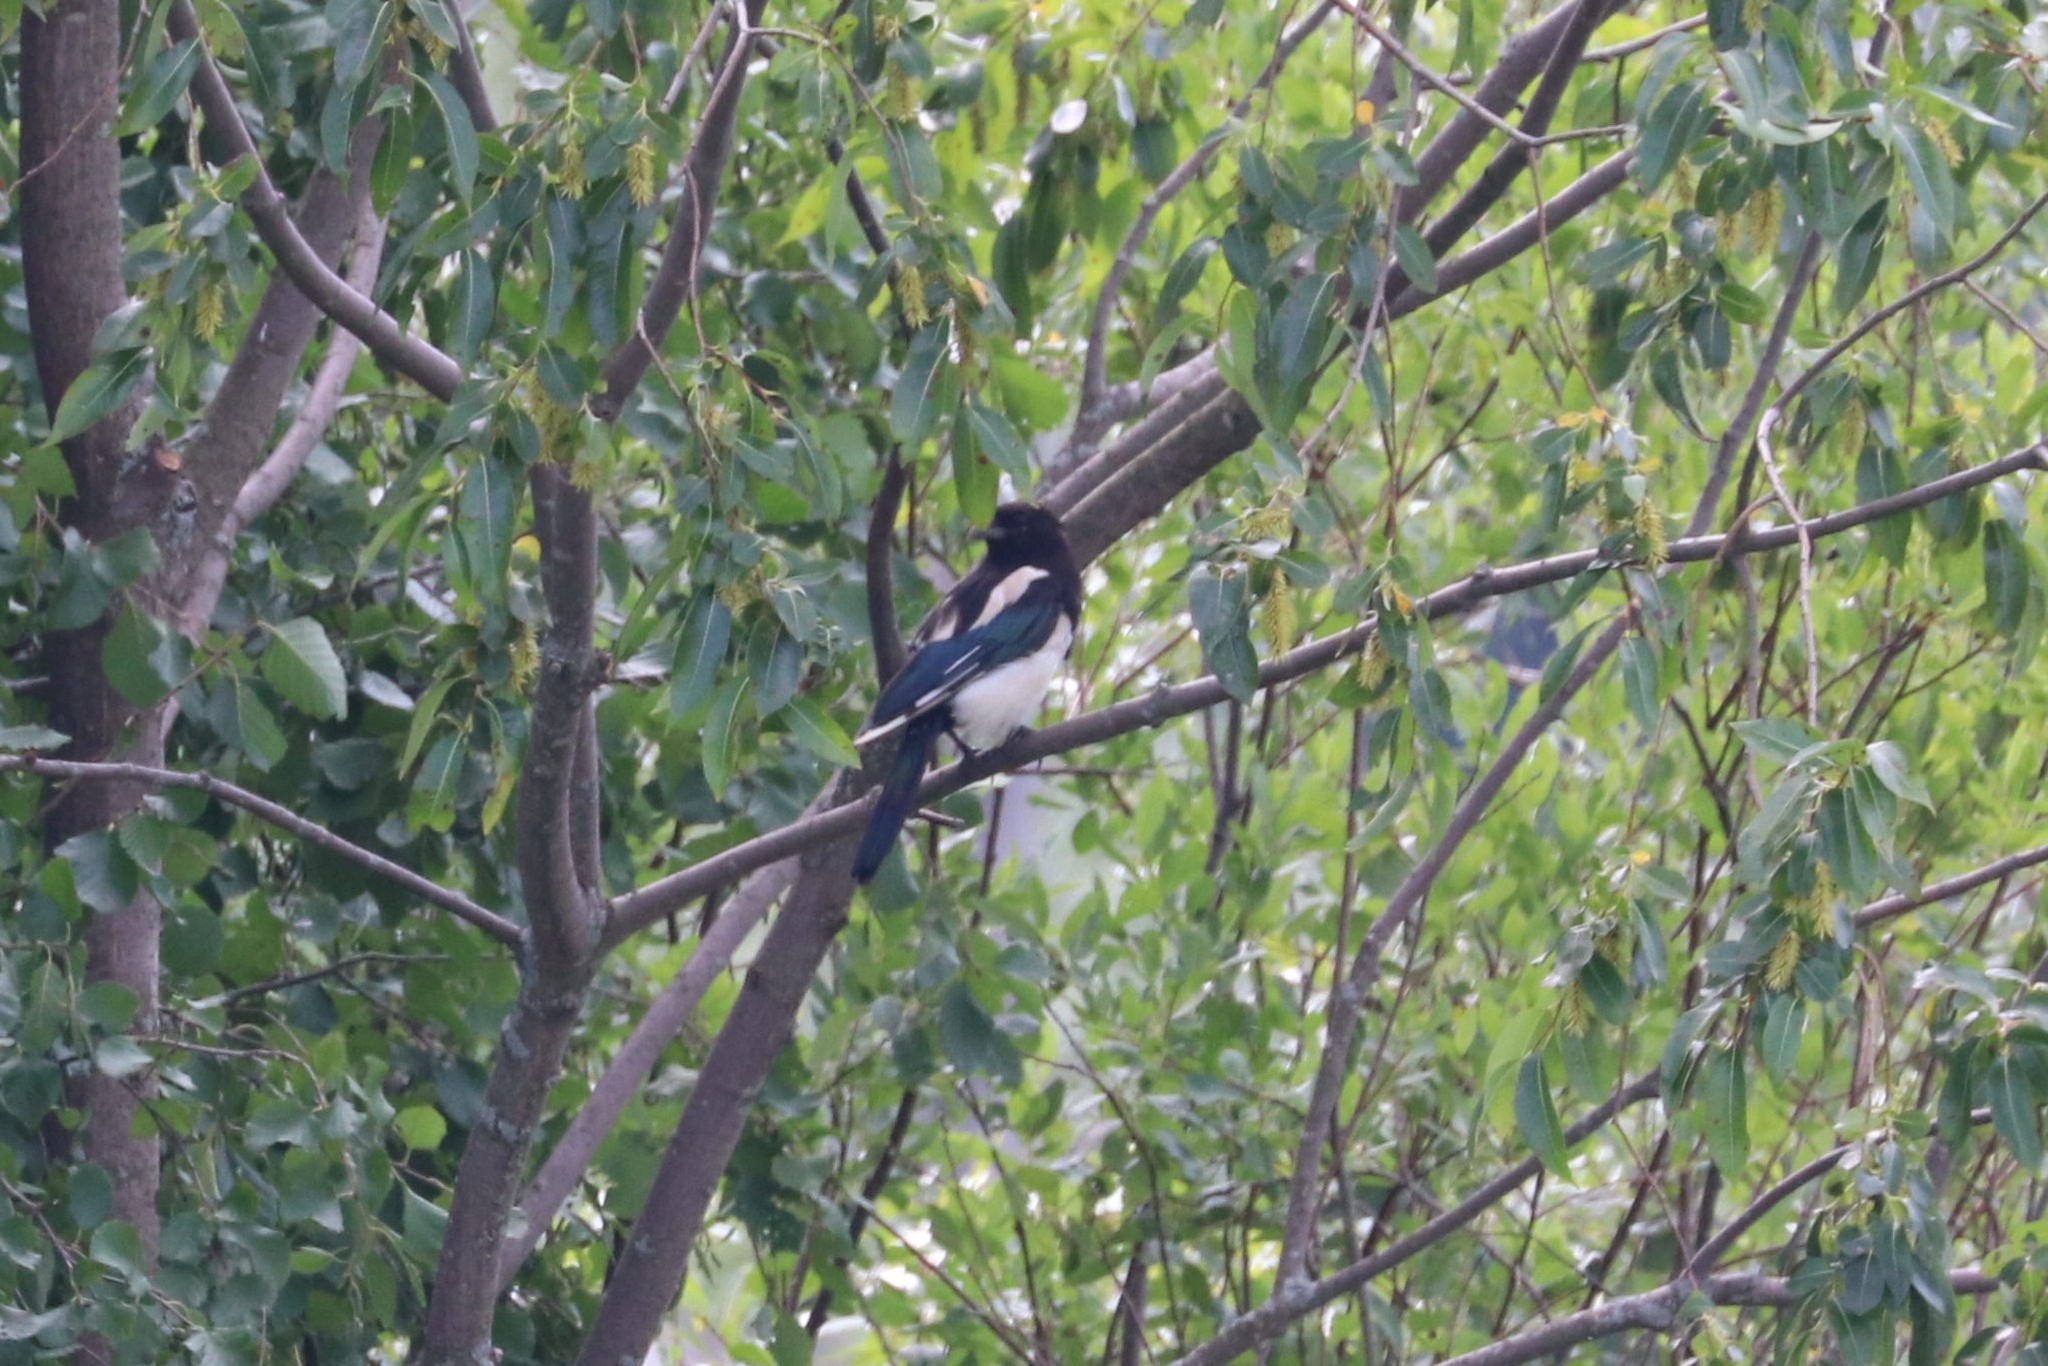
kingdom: Animalia
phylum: Chordata
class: Aves
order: Passeriformes
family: Corvidae
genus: Pica
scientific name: Pica pica
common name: Eurasian magpie
